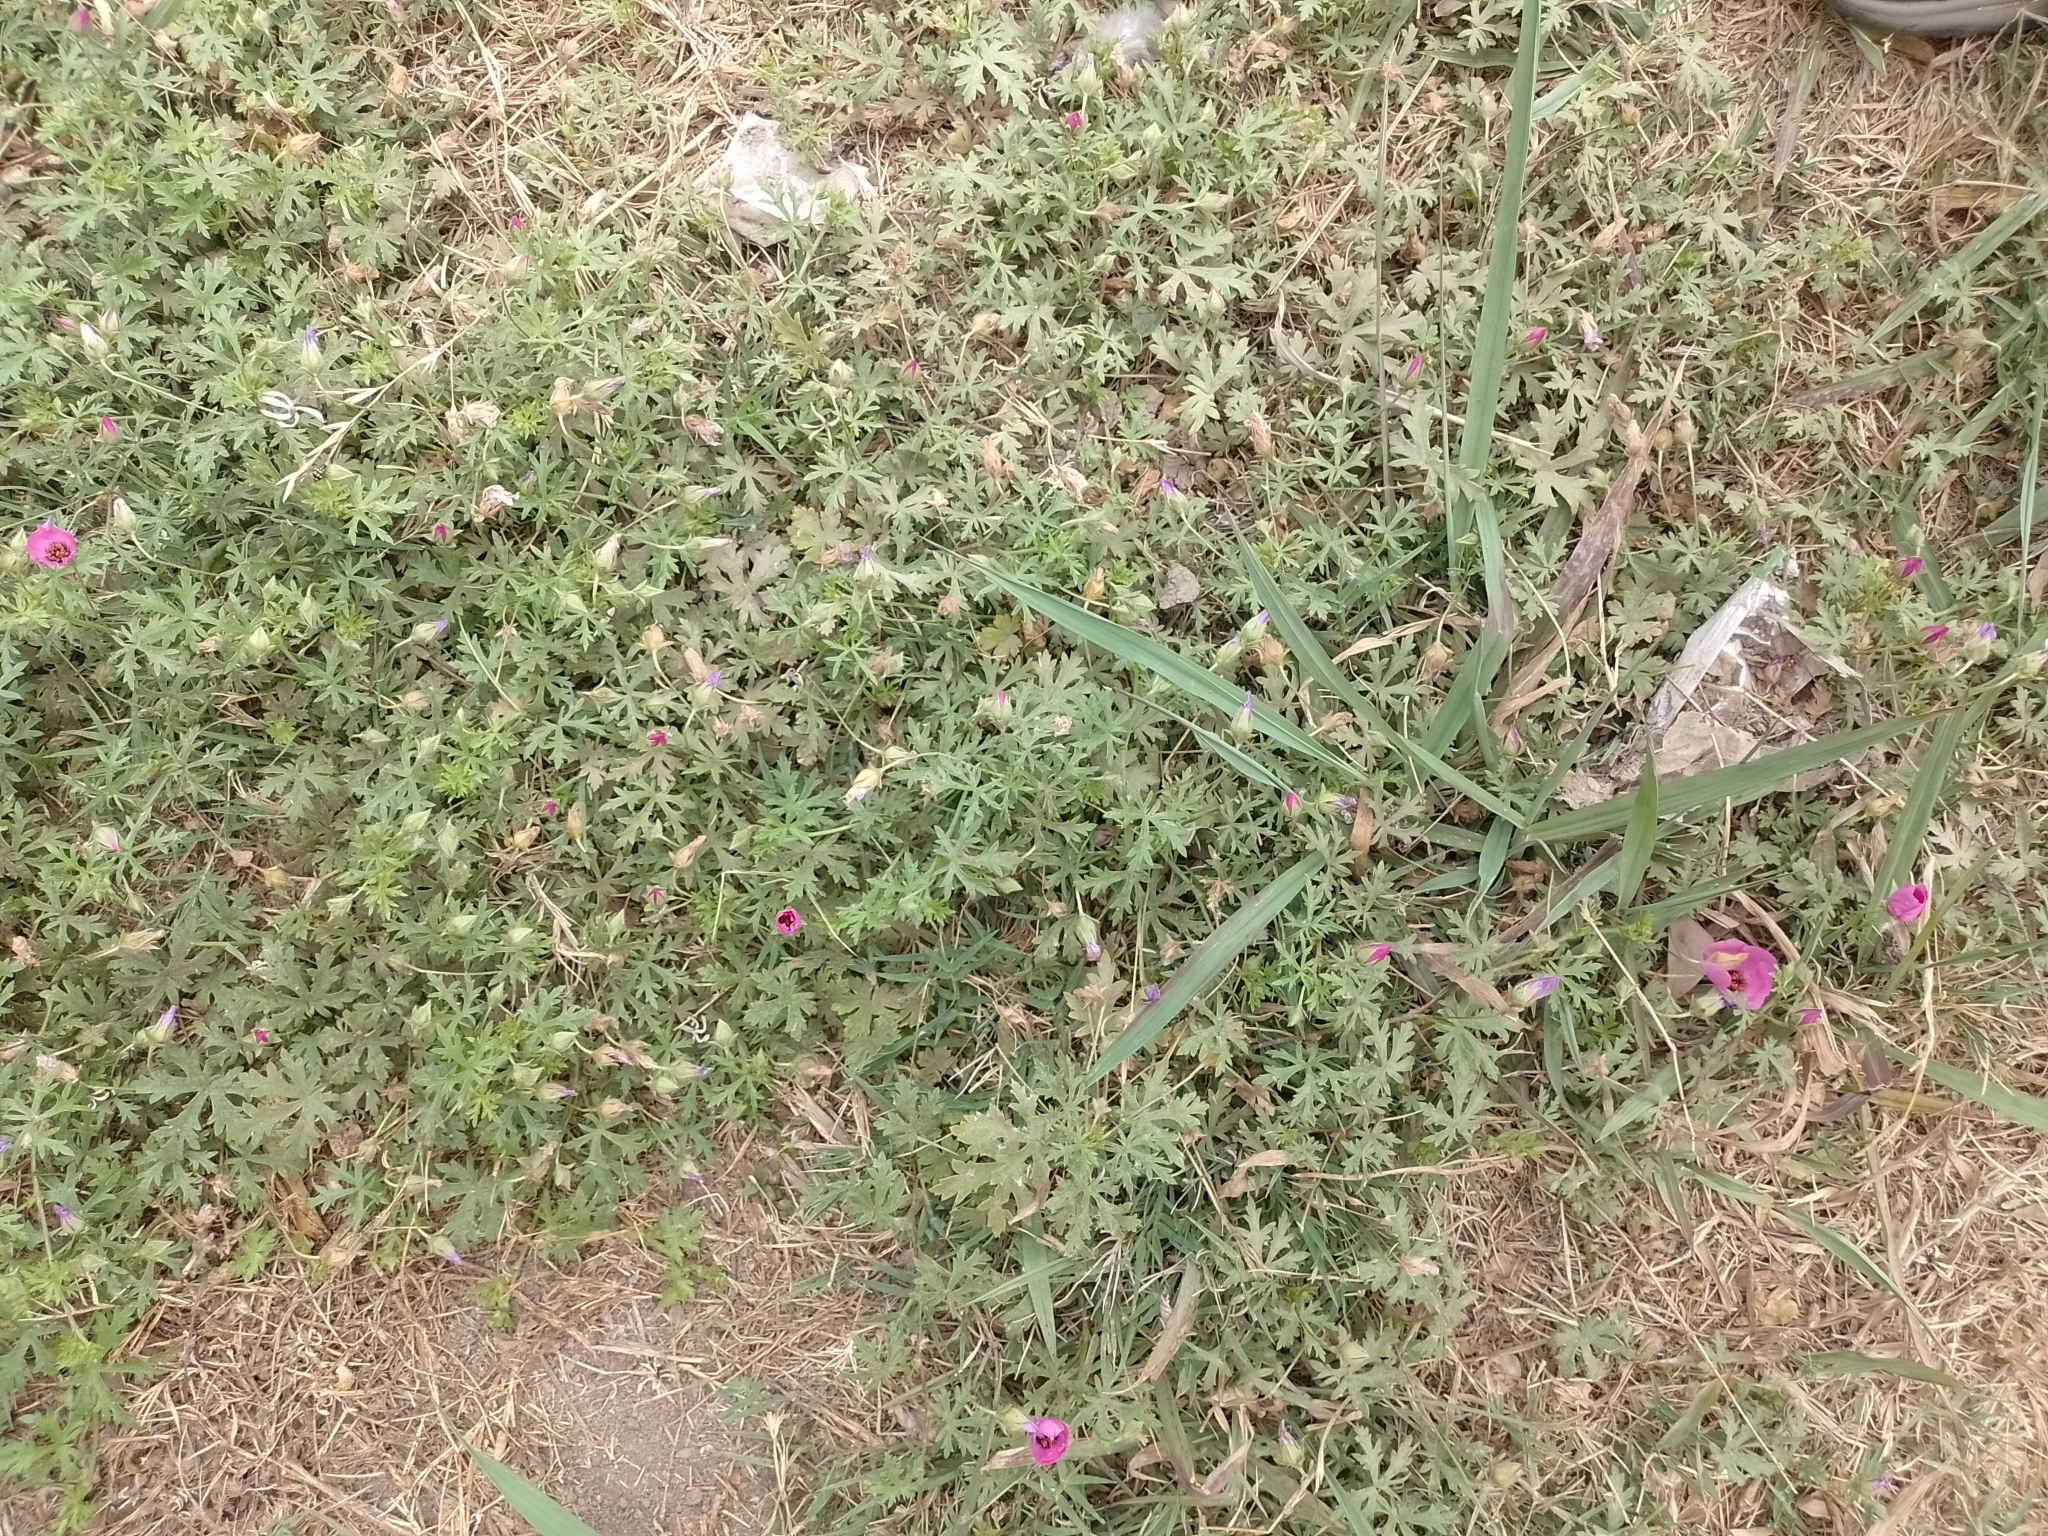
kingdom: Plantae
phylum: Tracheophyta
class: Magnoliopsida
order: Malvales
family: Malvaceae
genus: Modiolastrum
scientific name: Modiolastrum gilliesii
